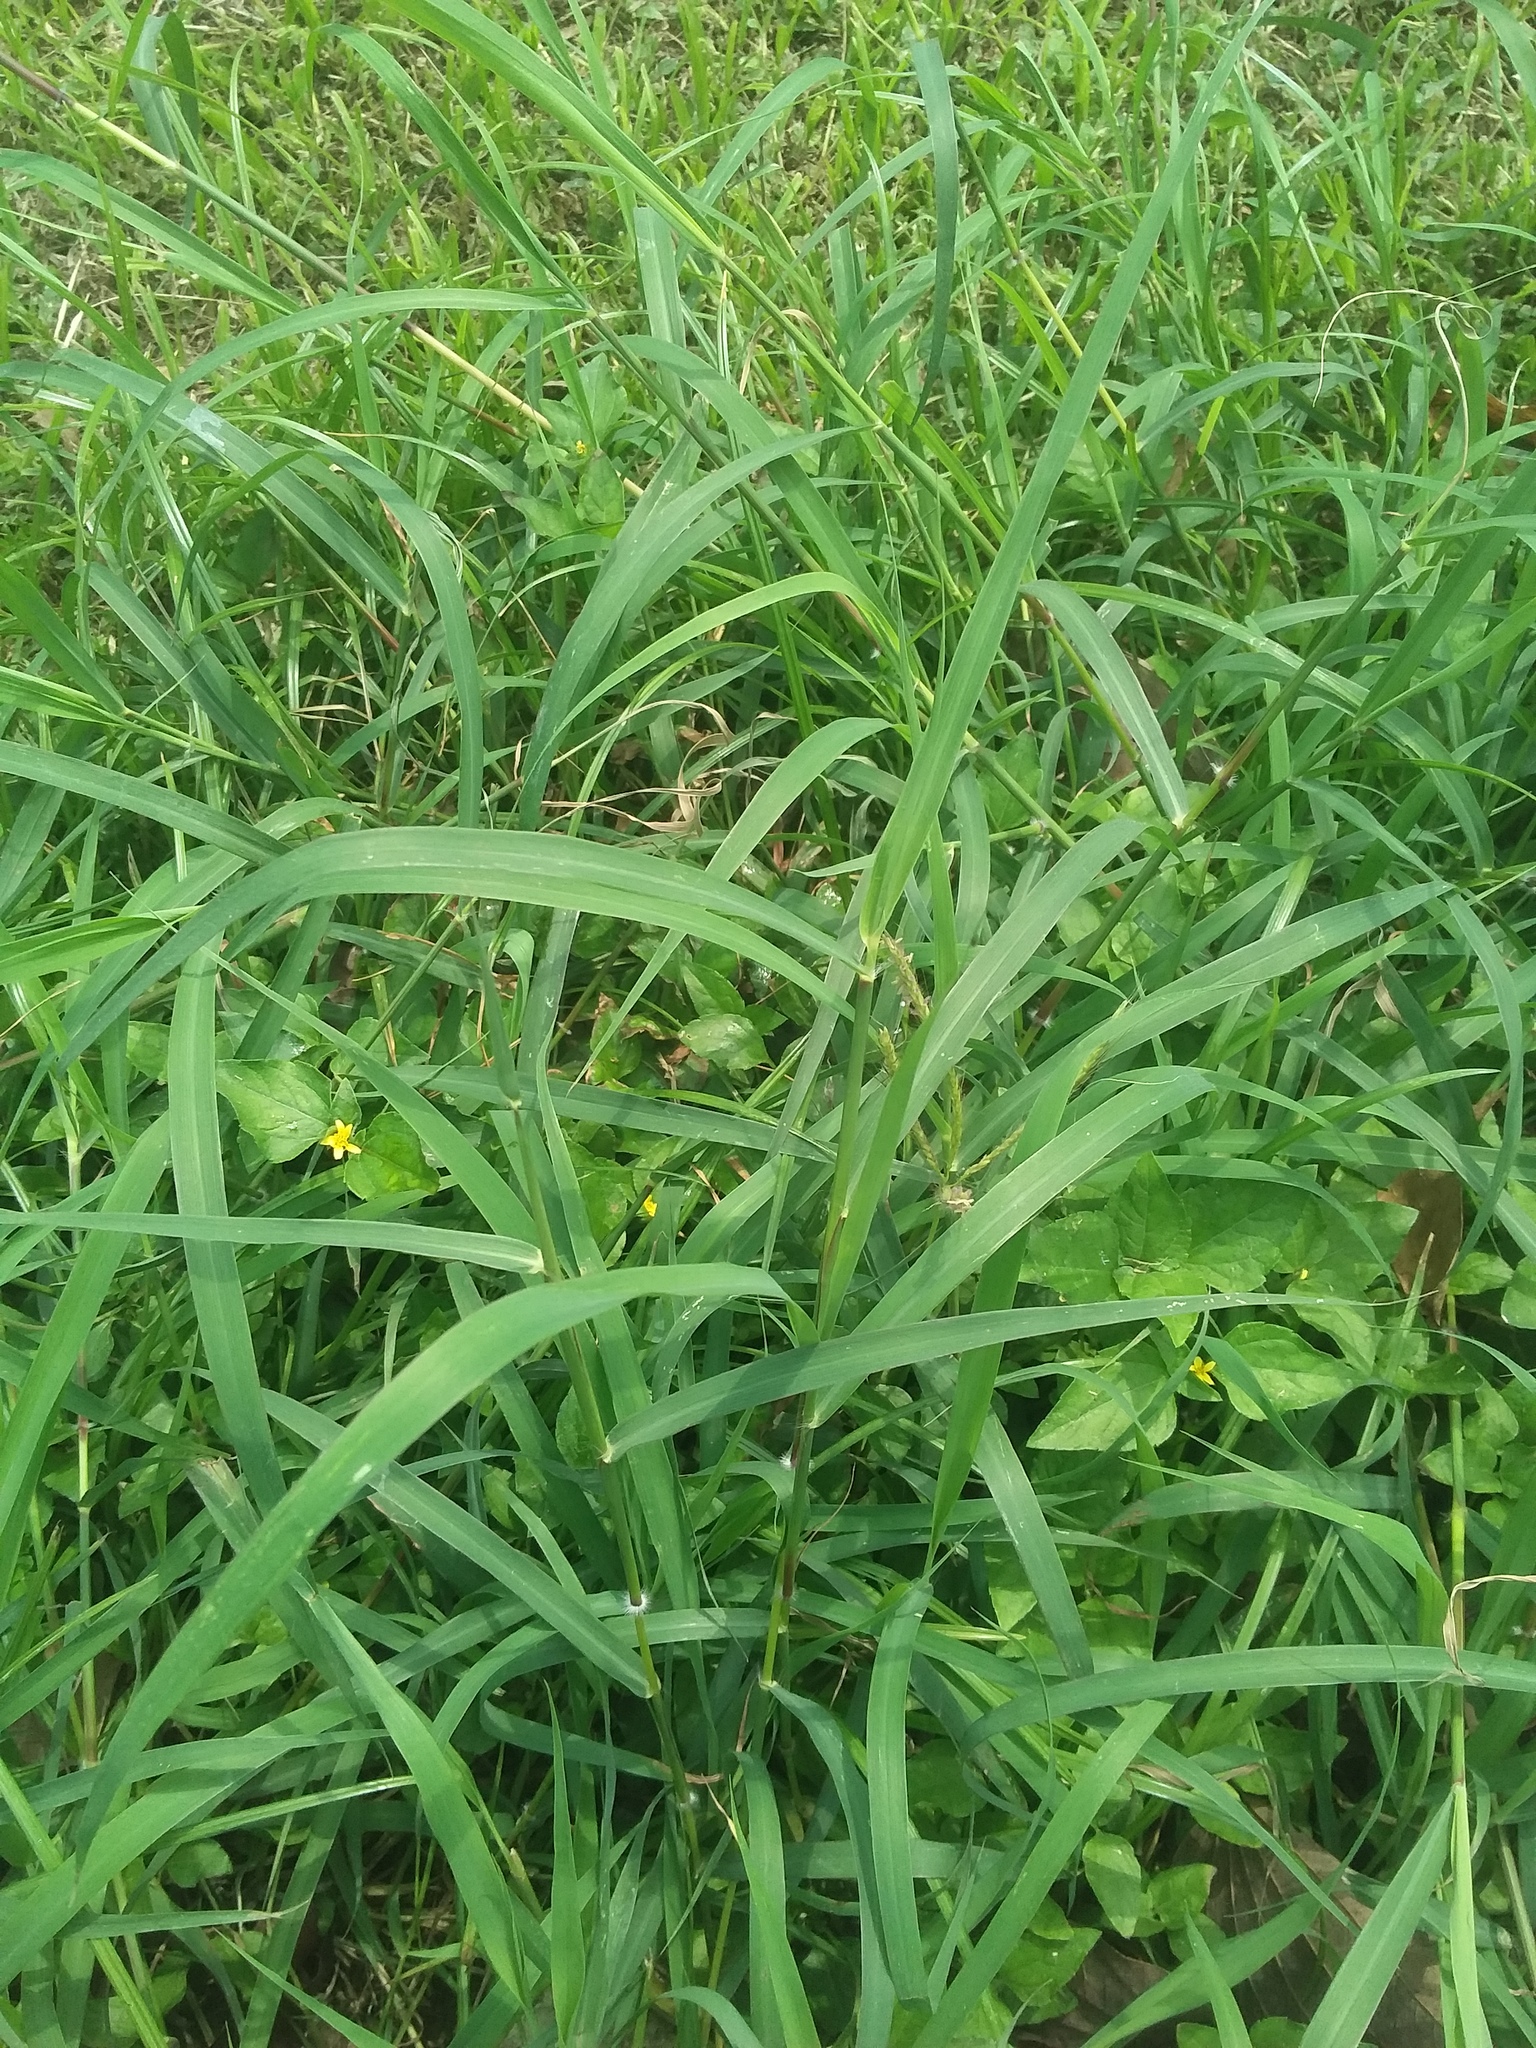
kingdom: Plantae
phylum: Tracheophyta
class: Liliopsida
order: Poales
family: Poaceae
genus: Dichanthium
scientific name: Dichanthium annulatum
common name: Kleberg's bluestem
